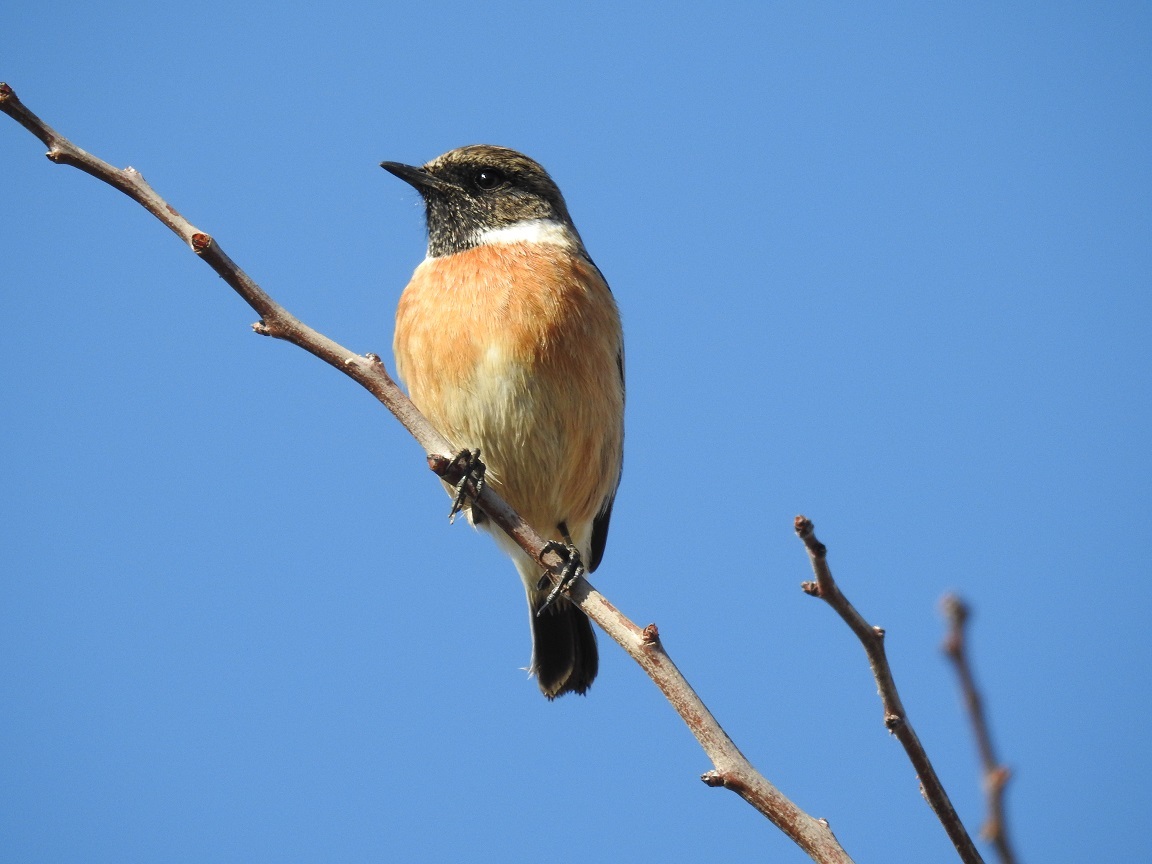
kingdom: Animalia
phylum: Chordata
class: Aves
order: Passeriformes
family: Muscicapidae
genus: Saxicola
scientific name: Saxicola rubicola
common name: European stonechat
